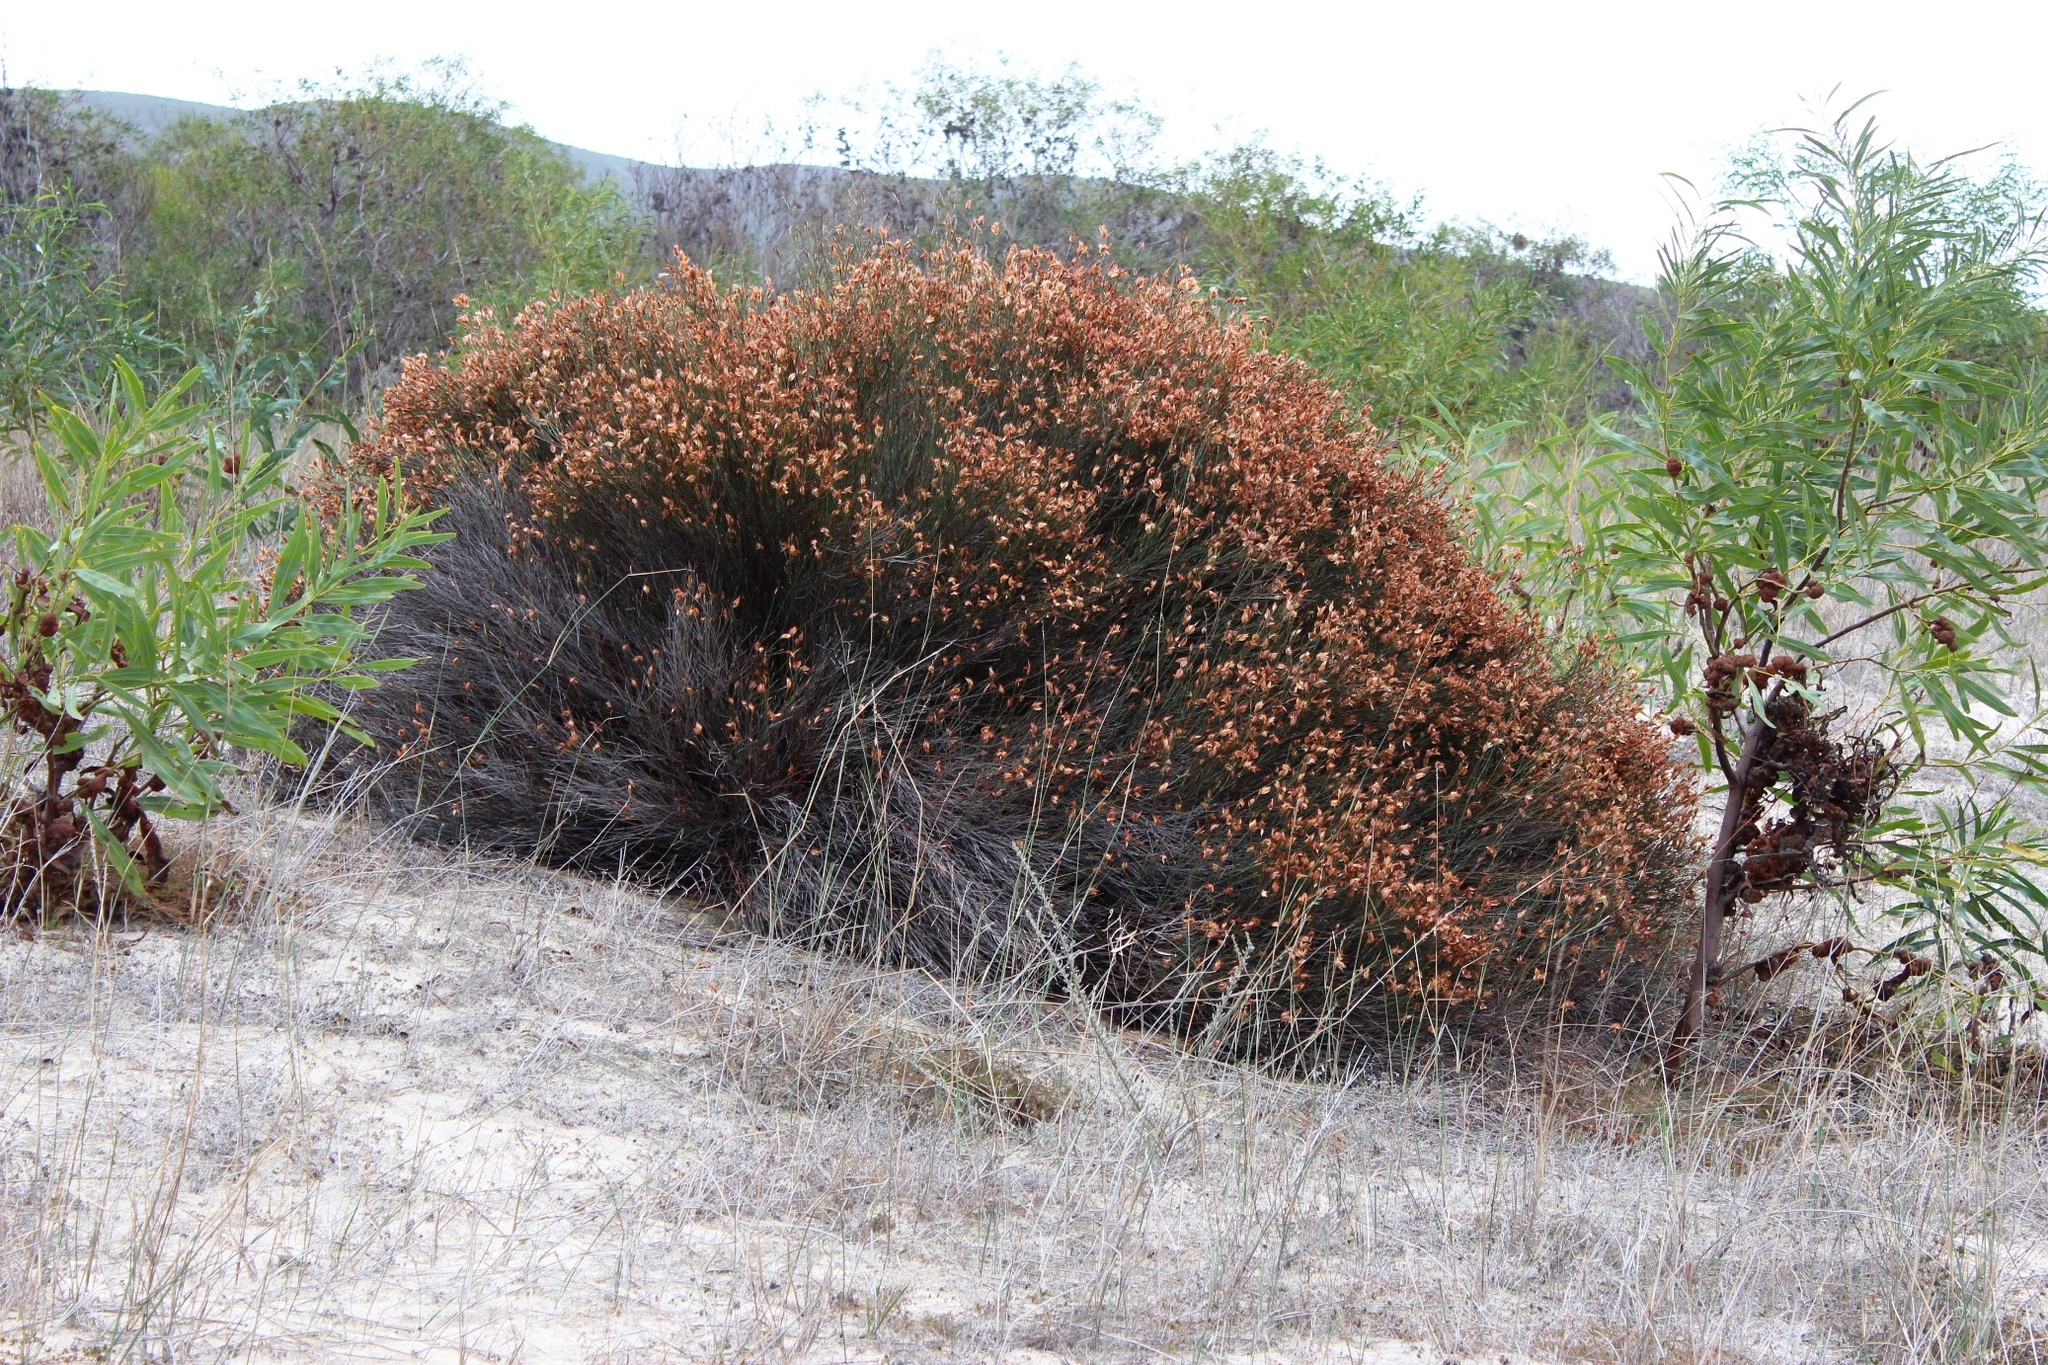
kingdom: Plantae
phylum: Tracheophyta
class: Liliopsida
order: Poales
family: Restionaceae
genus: Willdenowia
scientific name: Willdenowia incurvata
